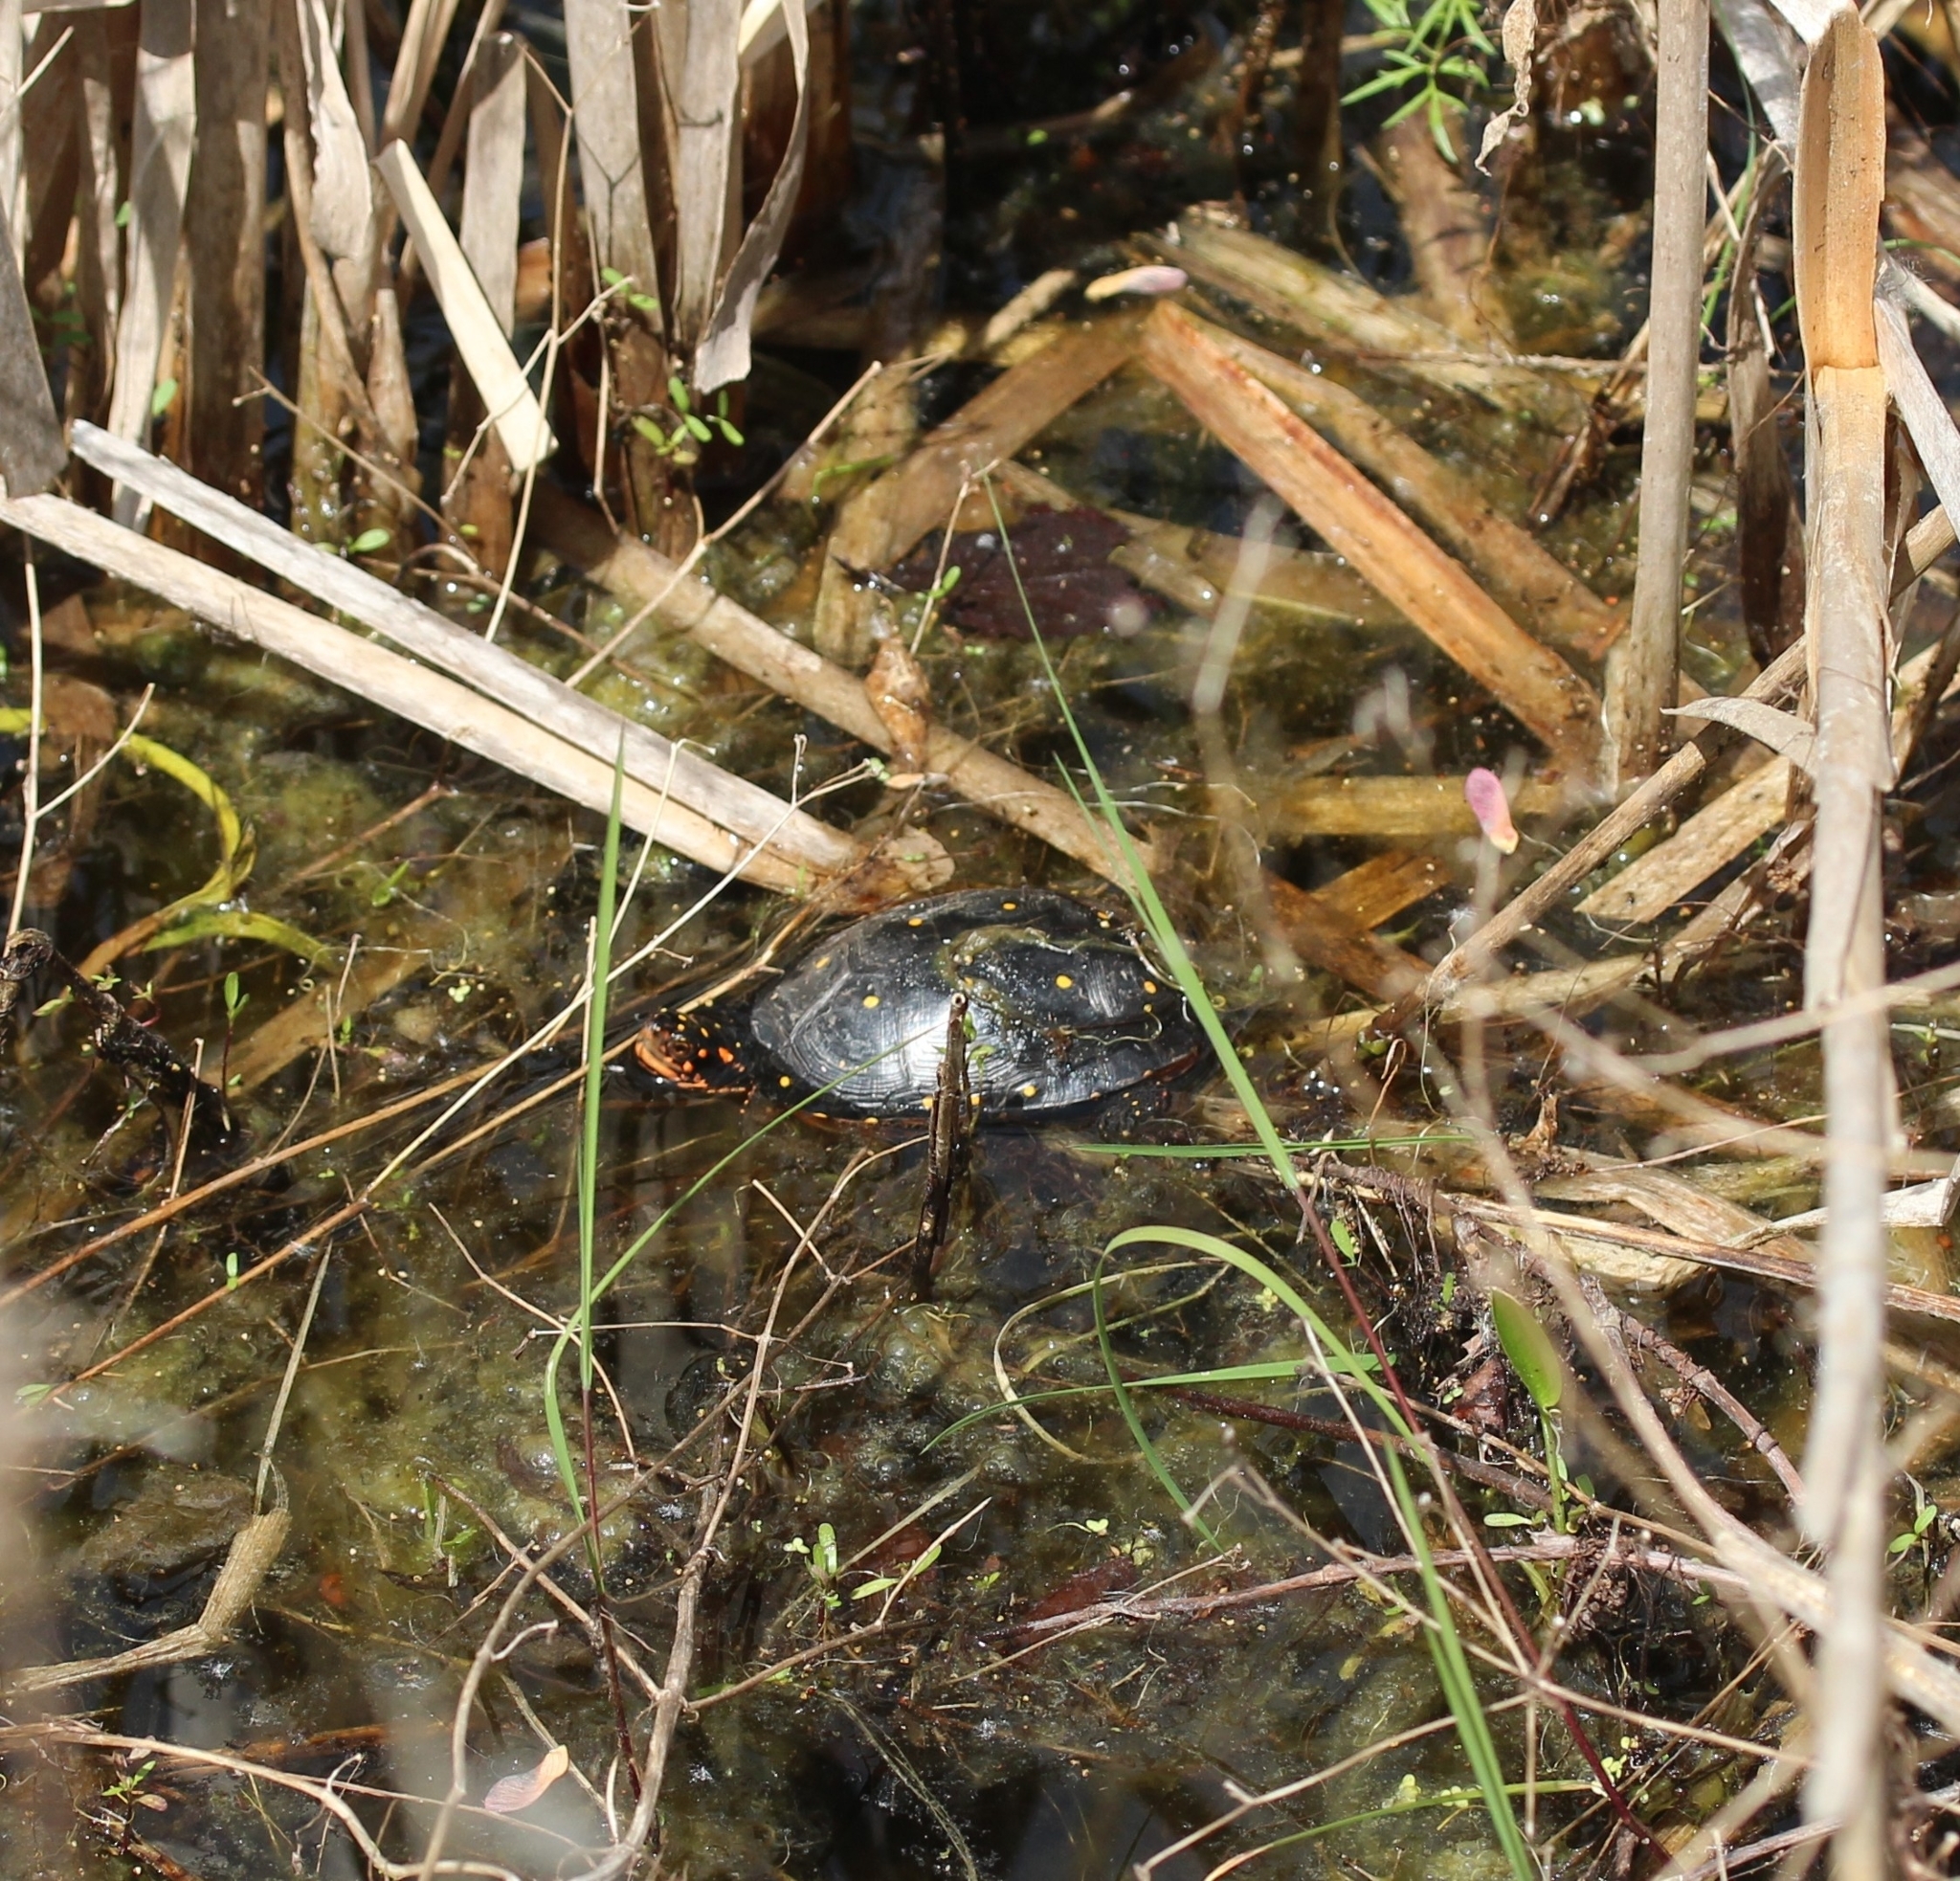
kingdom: Animalia
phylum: Chordata
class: Testudines
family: Emydidae
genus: Clemmys
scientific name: Clemmys guttata
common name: Spotted turtle
